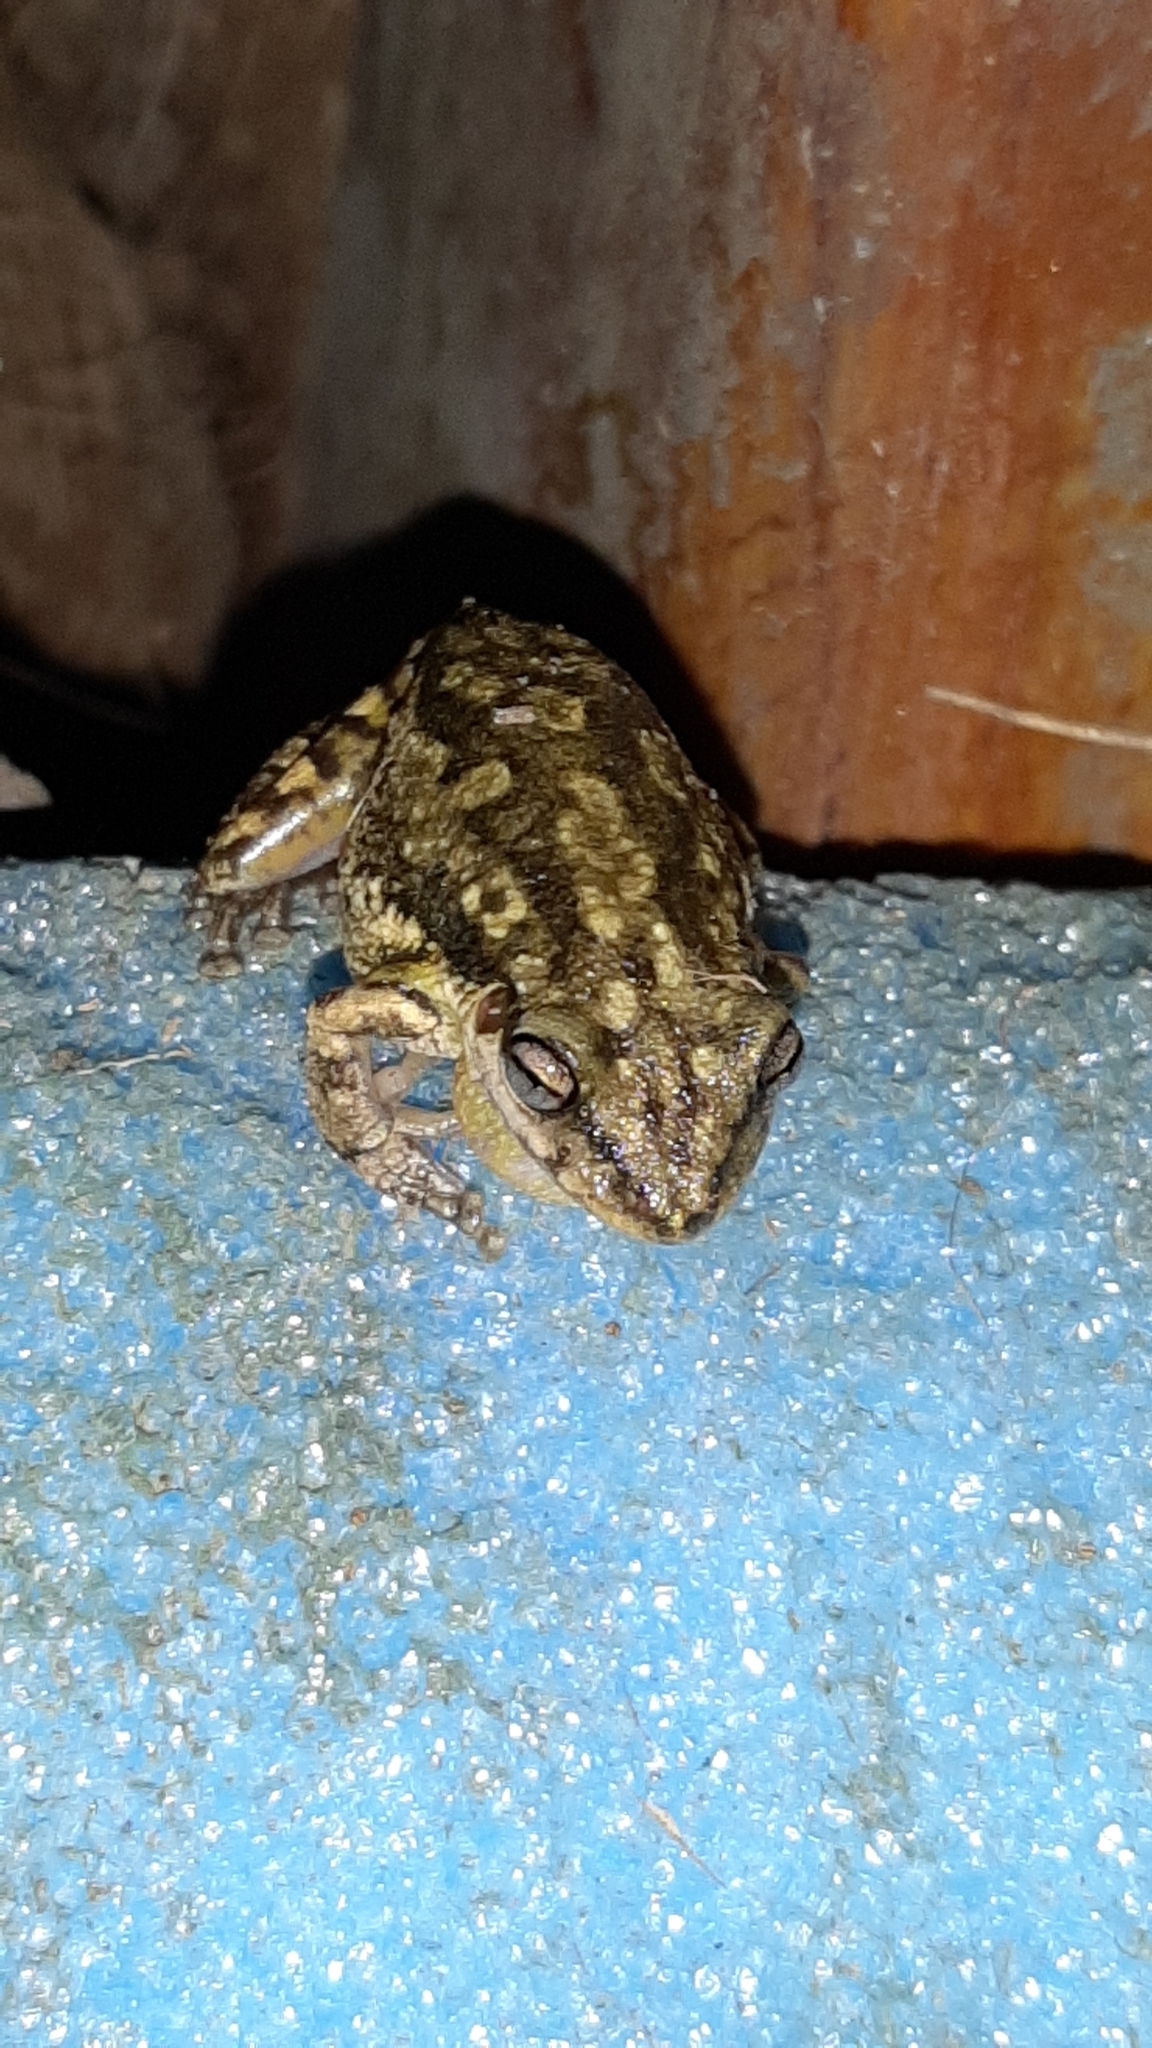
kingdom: Animalia
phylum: Chordata
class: Amphibia
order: Anura
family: Hylidae
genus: Scinax
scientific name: Scinax granulatus
